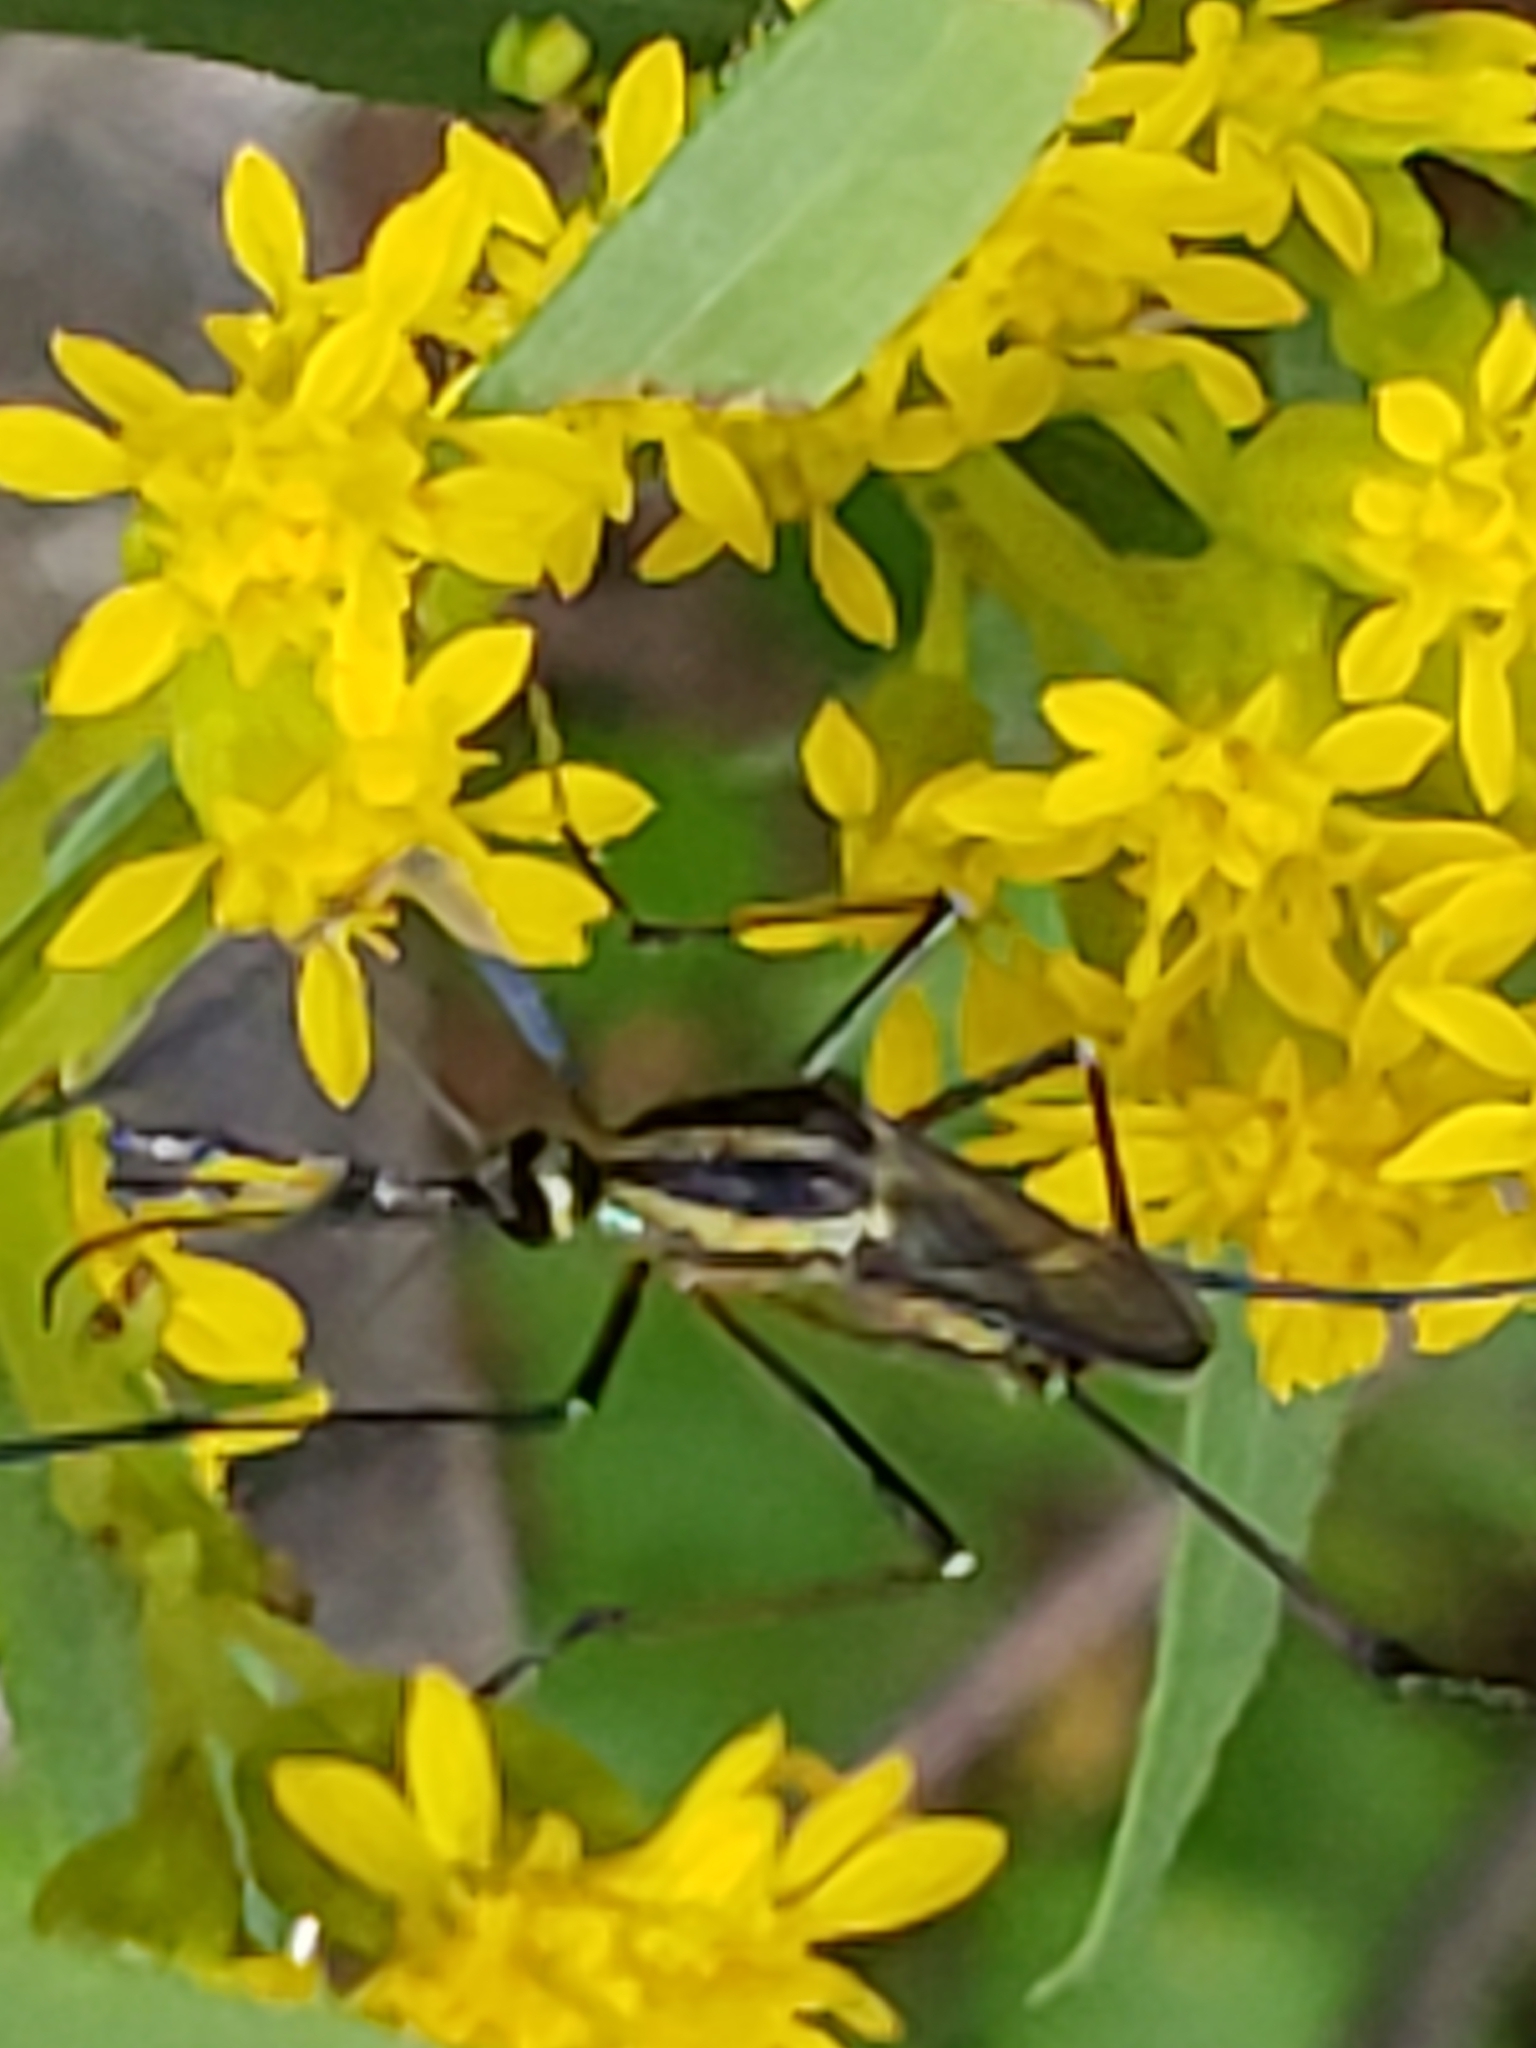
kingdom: Animalia
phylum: Arthropoda
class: Insecta
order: Diptera
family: Culicidae
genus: Toxorhynchites
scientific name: Toxorhynchites rutilus
